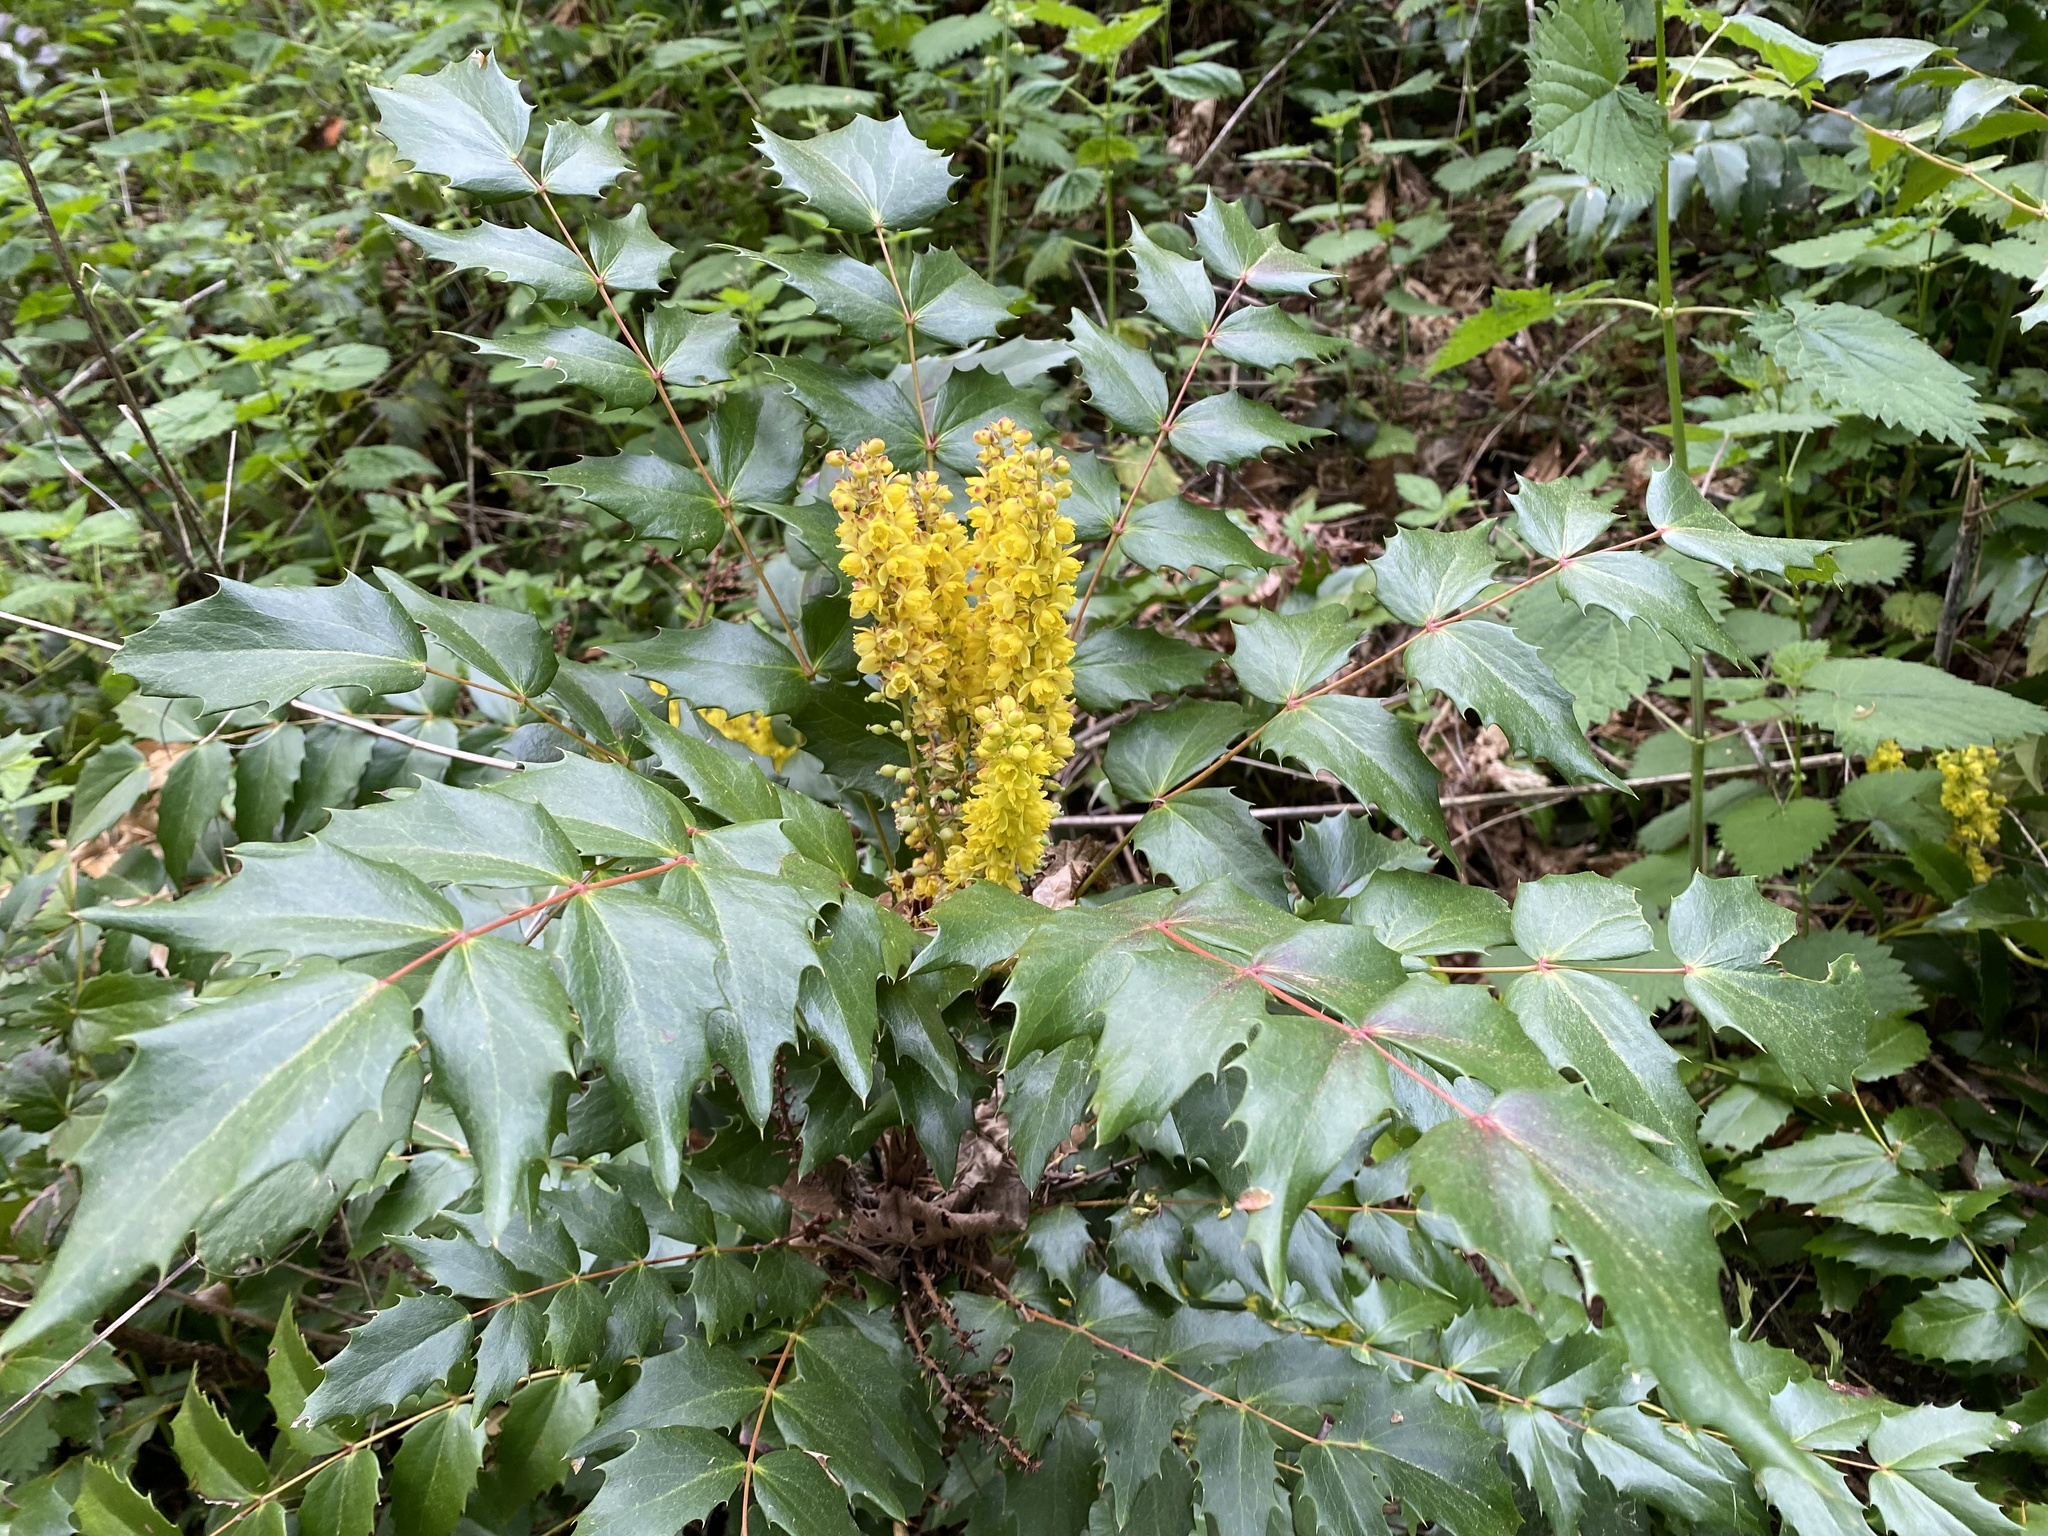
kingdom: Plantae
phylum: Tracheophyta
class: Magnoliopsida
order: Ranunculales
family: Berberidaceae
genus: Mahonia
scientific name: Mahonia nervosa
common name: Cascade oregon-grape
